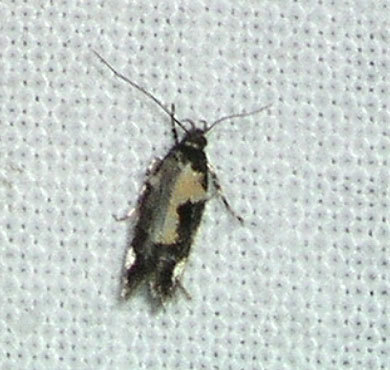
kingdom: Animalia
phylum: Arthropoda
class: Insecta
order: Lepidoptera
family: Gelechiidae
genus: Stegasta
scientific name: Stegasta bosqueella
